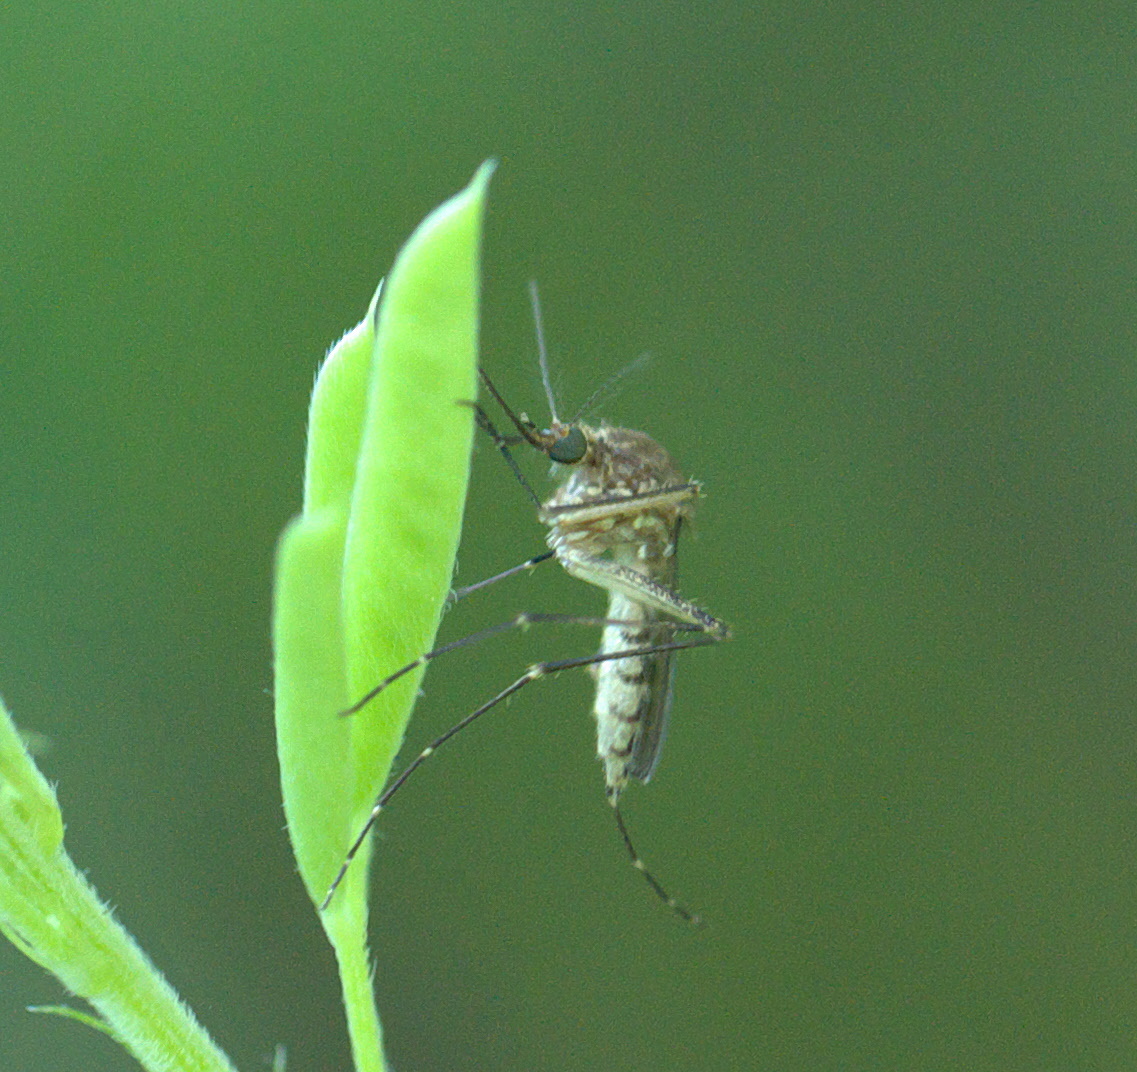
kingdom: Animalia
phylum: Arthropoda
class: Insecta
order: Diptera
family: Culicidae
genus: Aedes
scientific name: Aedes vexans
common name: Inland floodwater mosquito
